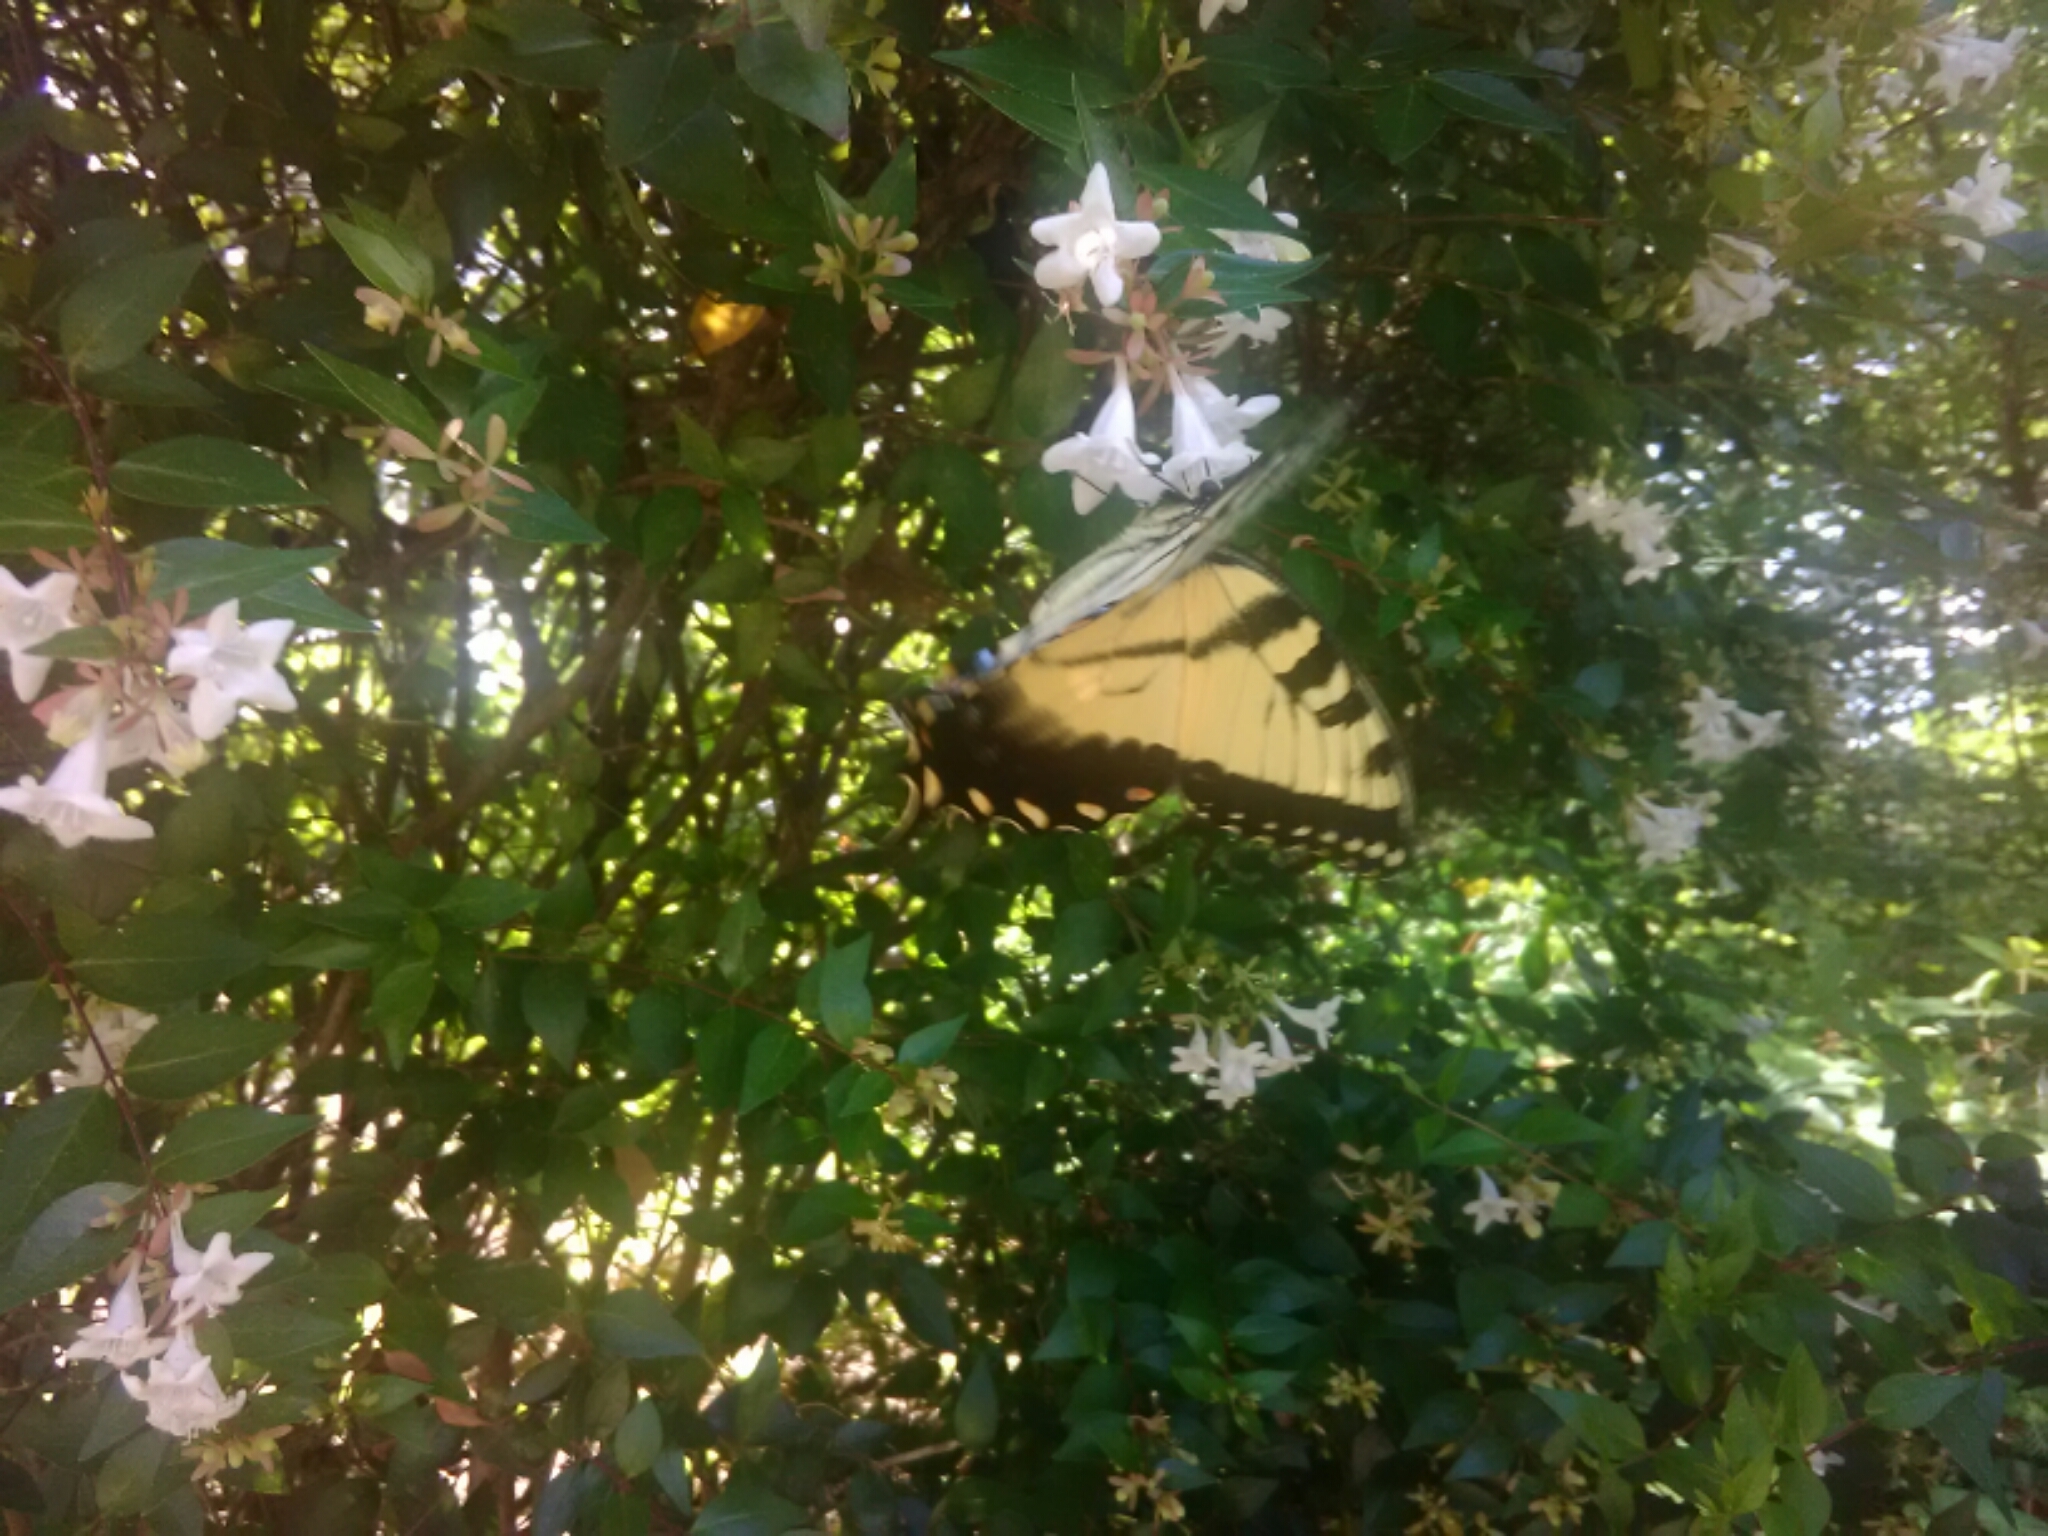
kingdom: Animalia
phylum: Arthropoda
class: Insecta
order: Lepidoptera
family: Papilionidae
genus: Papilio
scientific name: Papilio glaucus
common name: Tiger swallowtail
